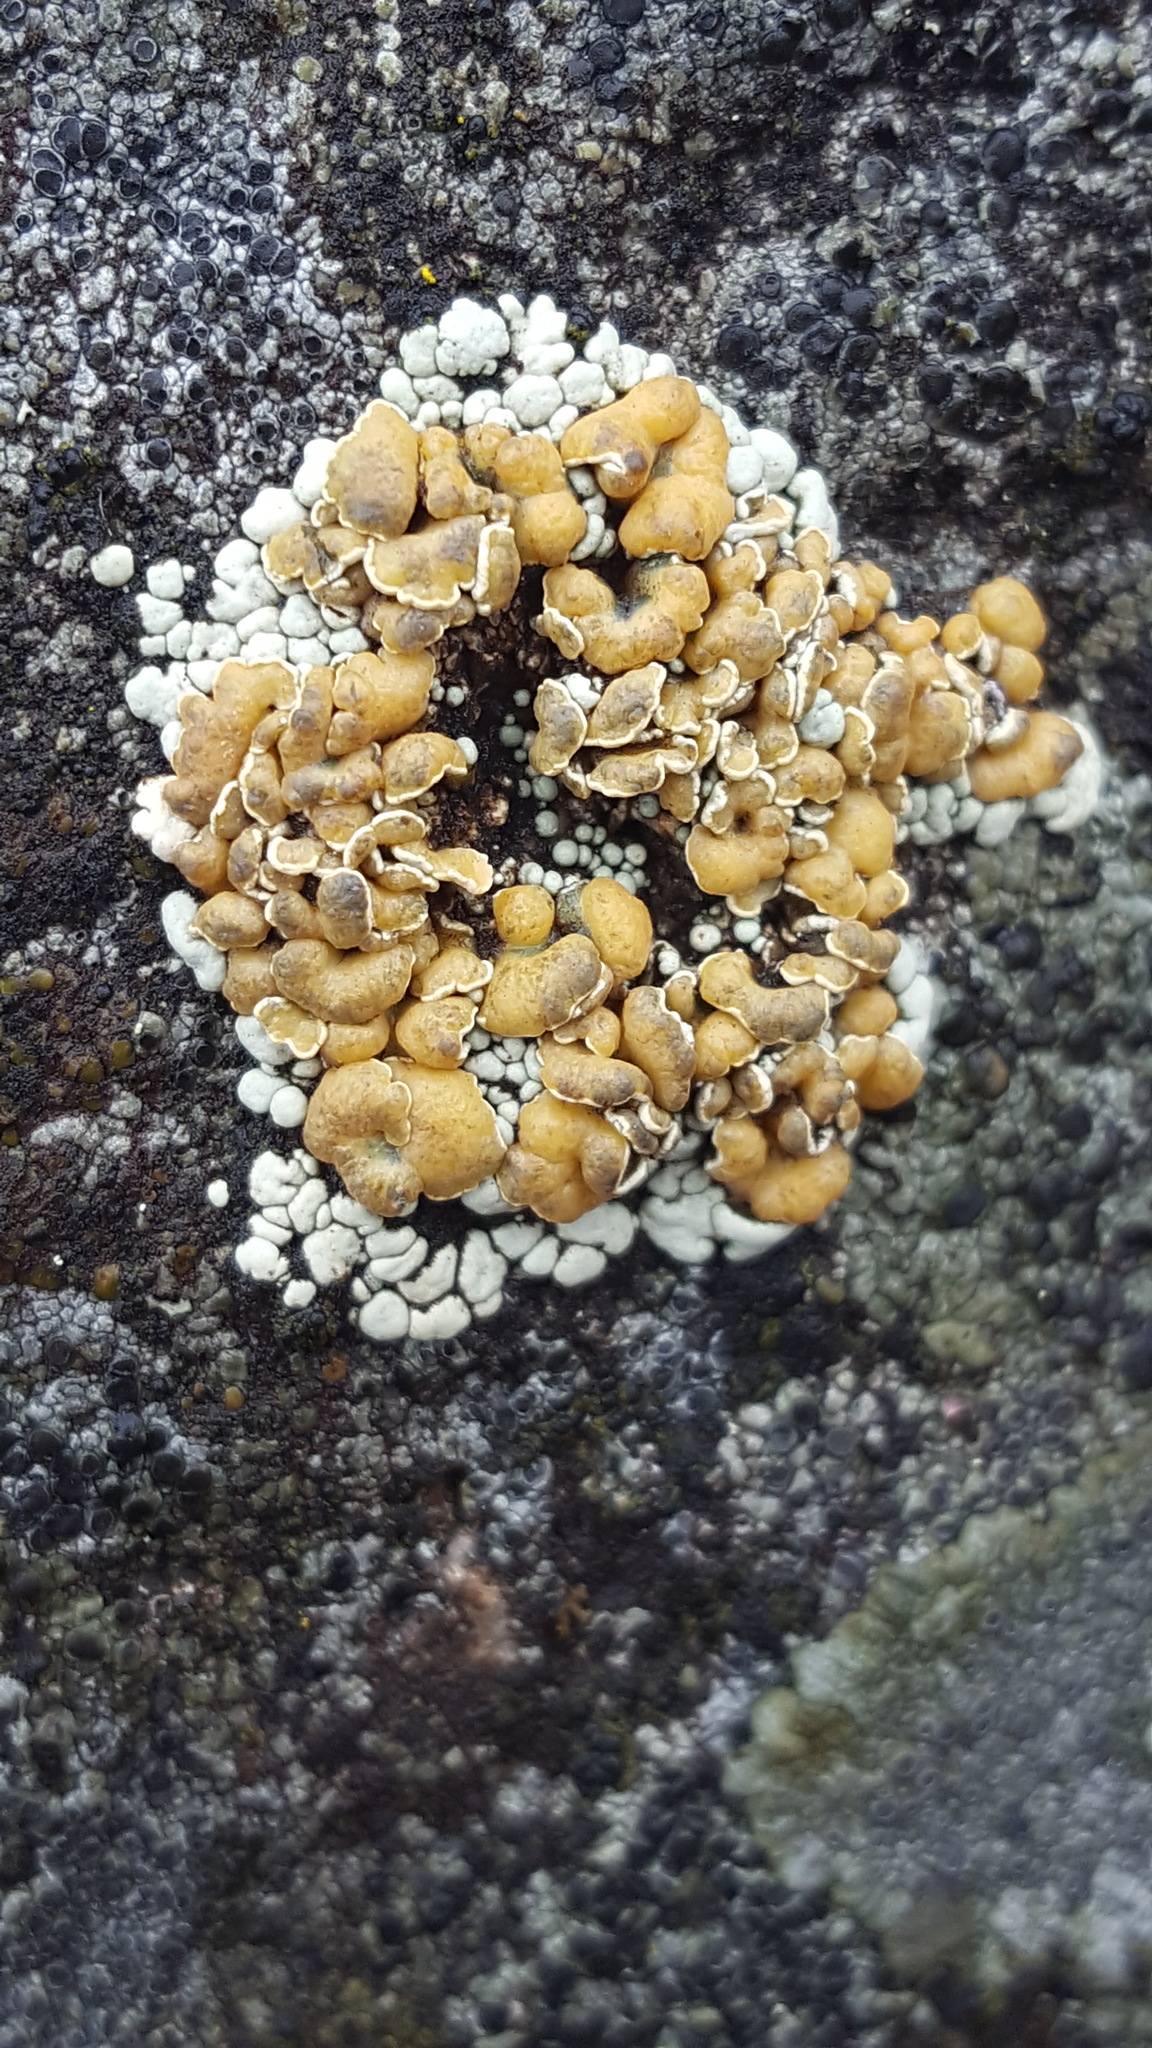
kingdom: Fungi
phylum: Ascomycota
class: Lecanoromycetes
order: Lecanorales
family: Lecanoraceae
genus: Omphalodina
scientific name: Omphalodina chrysoleuca
